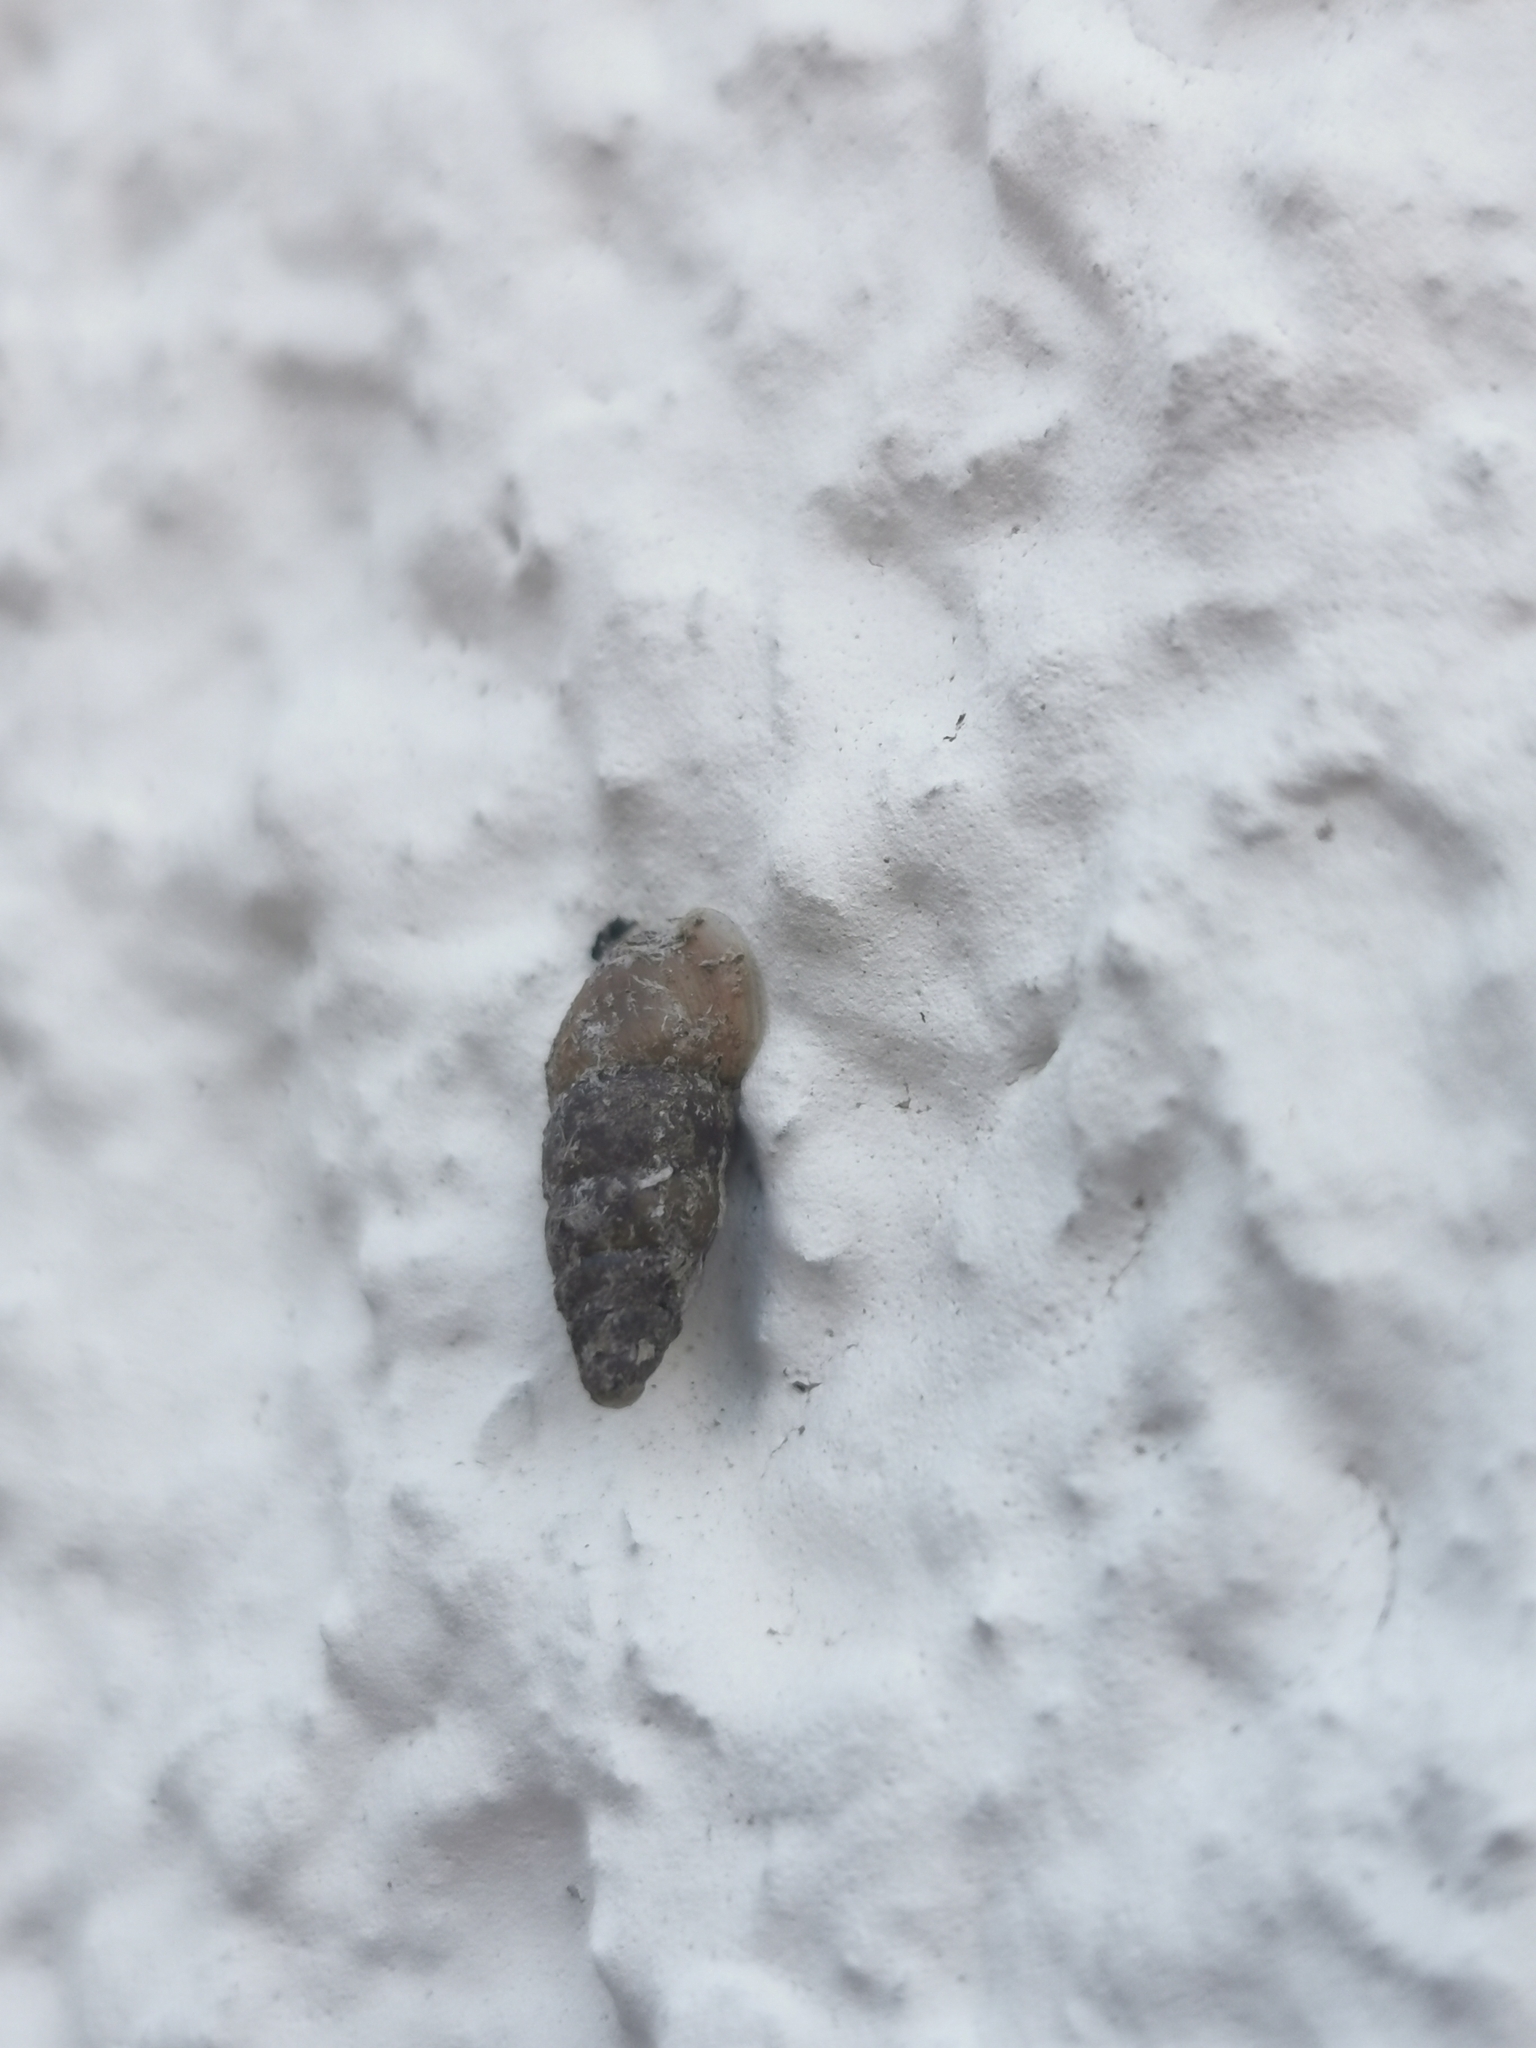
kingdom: Animalia
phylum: Mollusca
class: Gastropoda
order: Stylommatophora
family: Enidae
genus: Merdigera
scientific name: Merdigera obscura
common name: Lesser bulin
